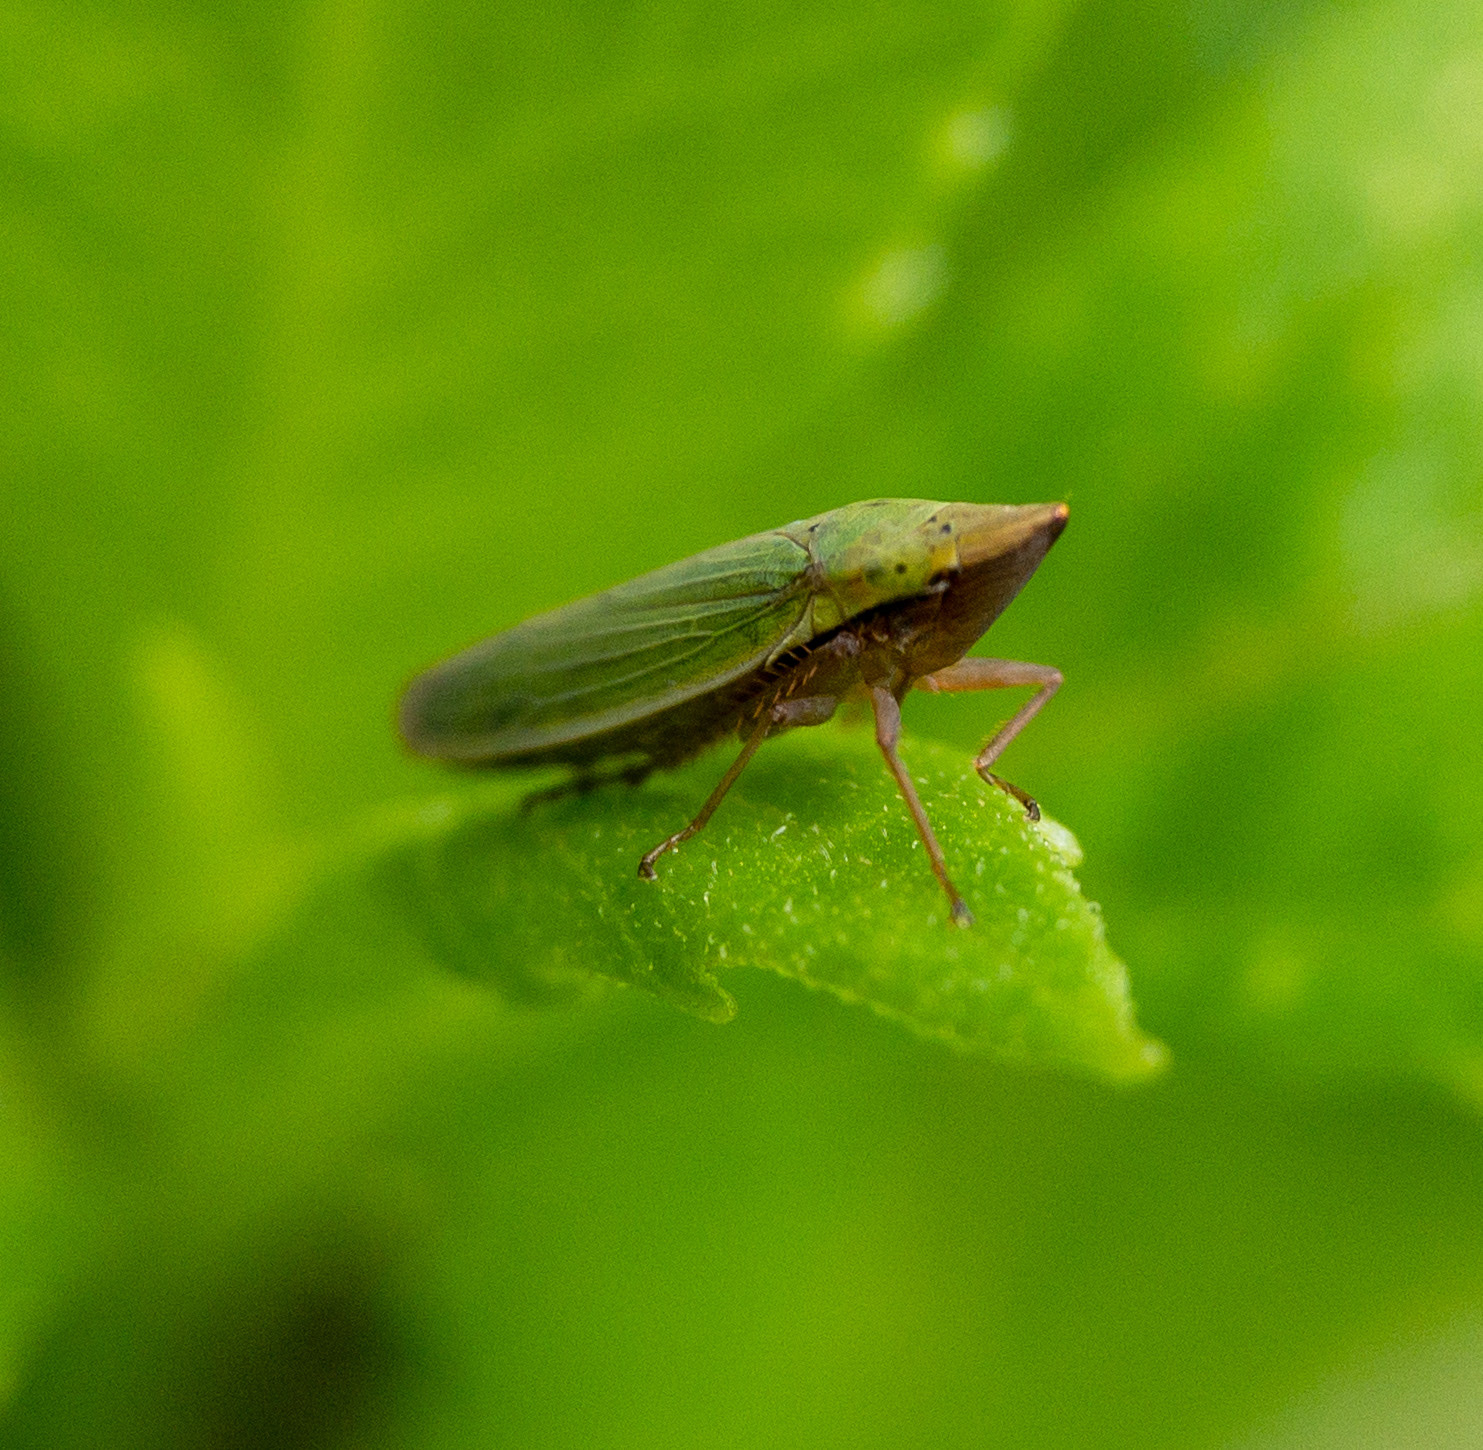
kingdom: Animalia
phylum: Arthropoda
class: Insecta
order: Hemiptera
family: Cicadellidae
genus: Draeculacephala
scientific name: Draeculacephala balli
